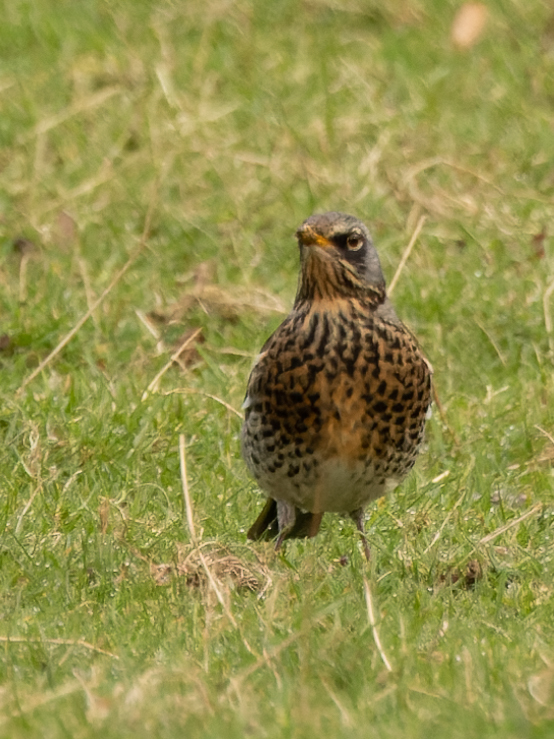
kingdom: Animalia
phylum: Chordata
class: Aves
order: Passeriformes
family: Turdidae
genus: Turdus
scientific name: Turdus pilaris
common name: Fieldfare
